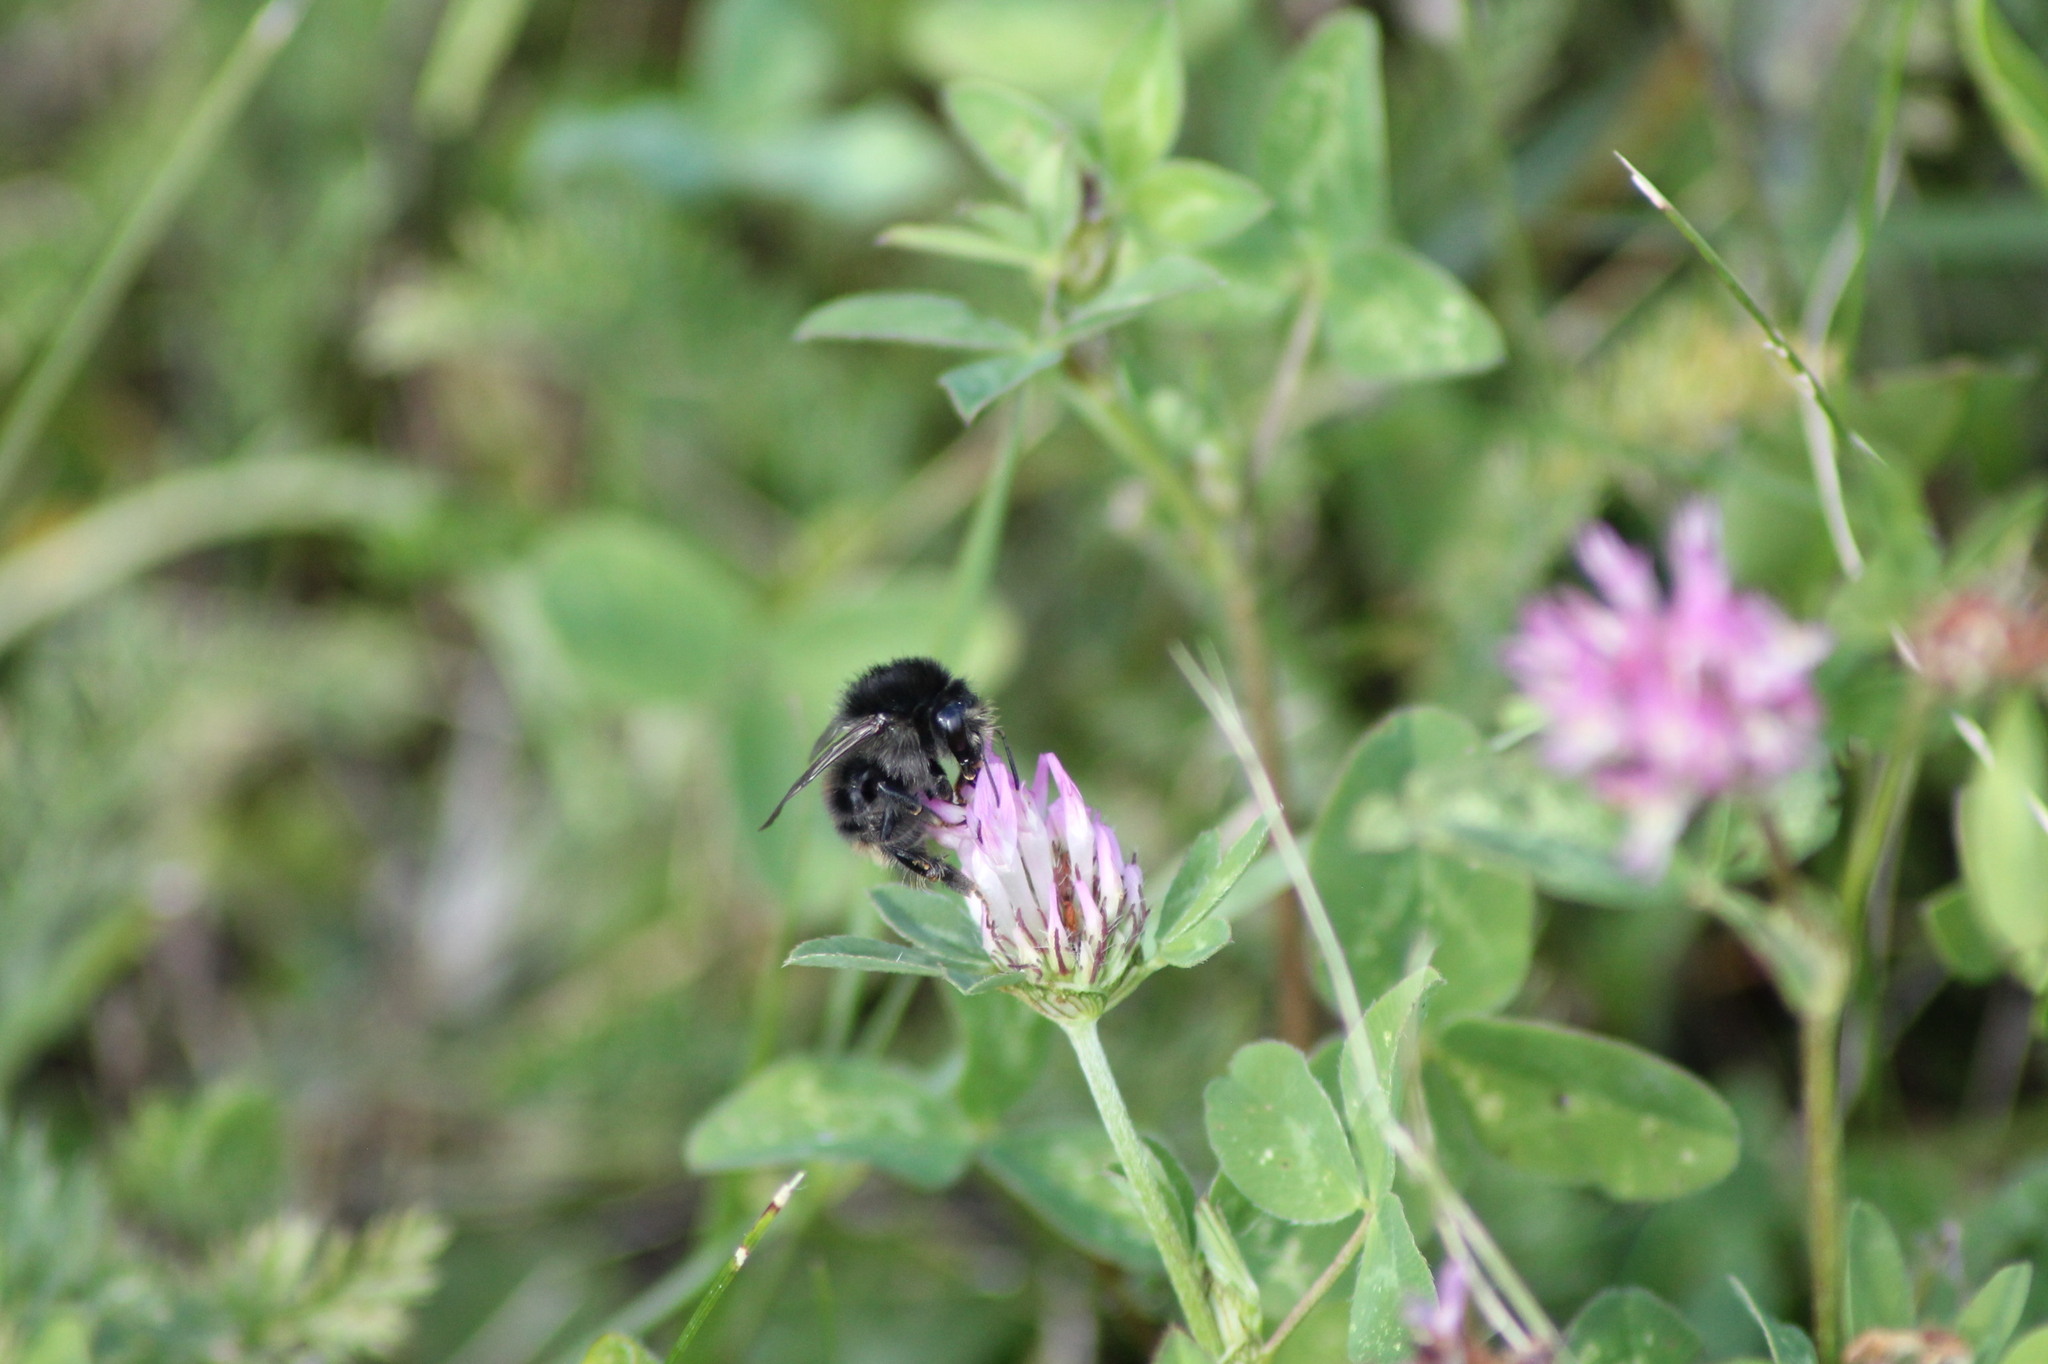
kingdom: Animalia
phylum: Arthropoda
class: Insecta
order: Hymenoptera
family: Apidae
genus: Bombus
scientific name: Bombus humilis
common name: Brown-banded carder-bee
